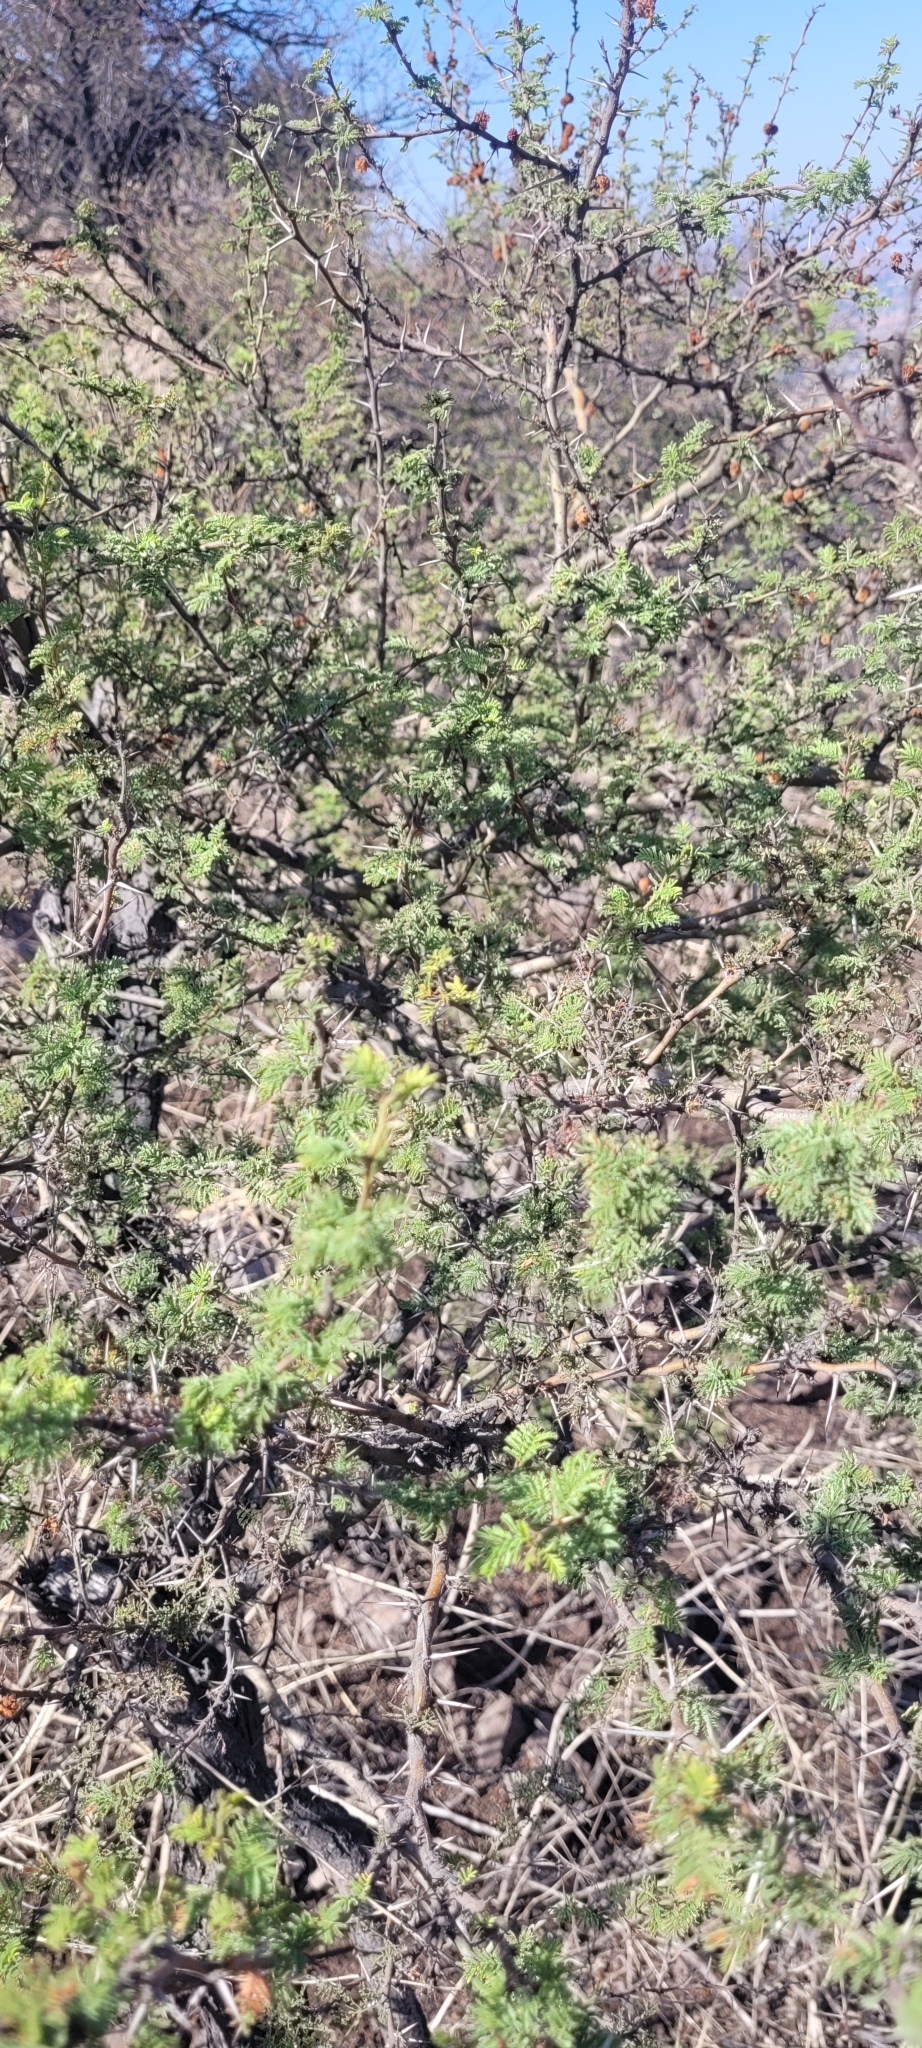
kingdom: Plantae
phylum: Tracheophyta
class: Magnoliopsida
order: Fabales
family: Fabaceae
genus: Vachellia
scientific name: Vachellia caven
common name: Roman cassie
